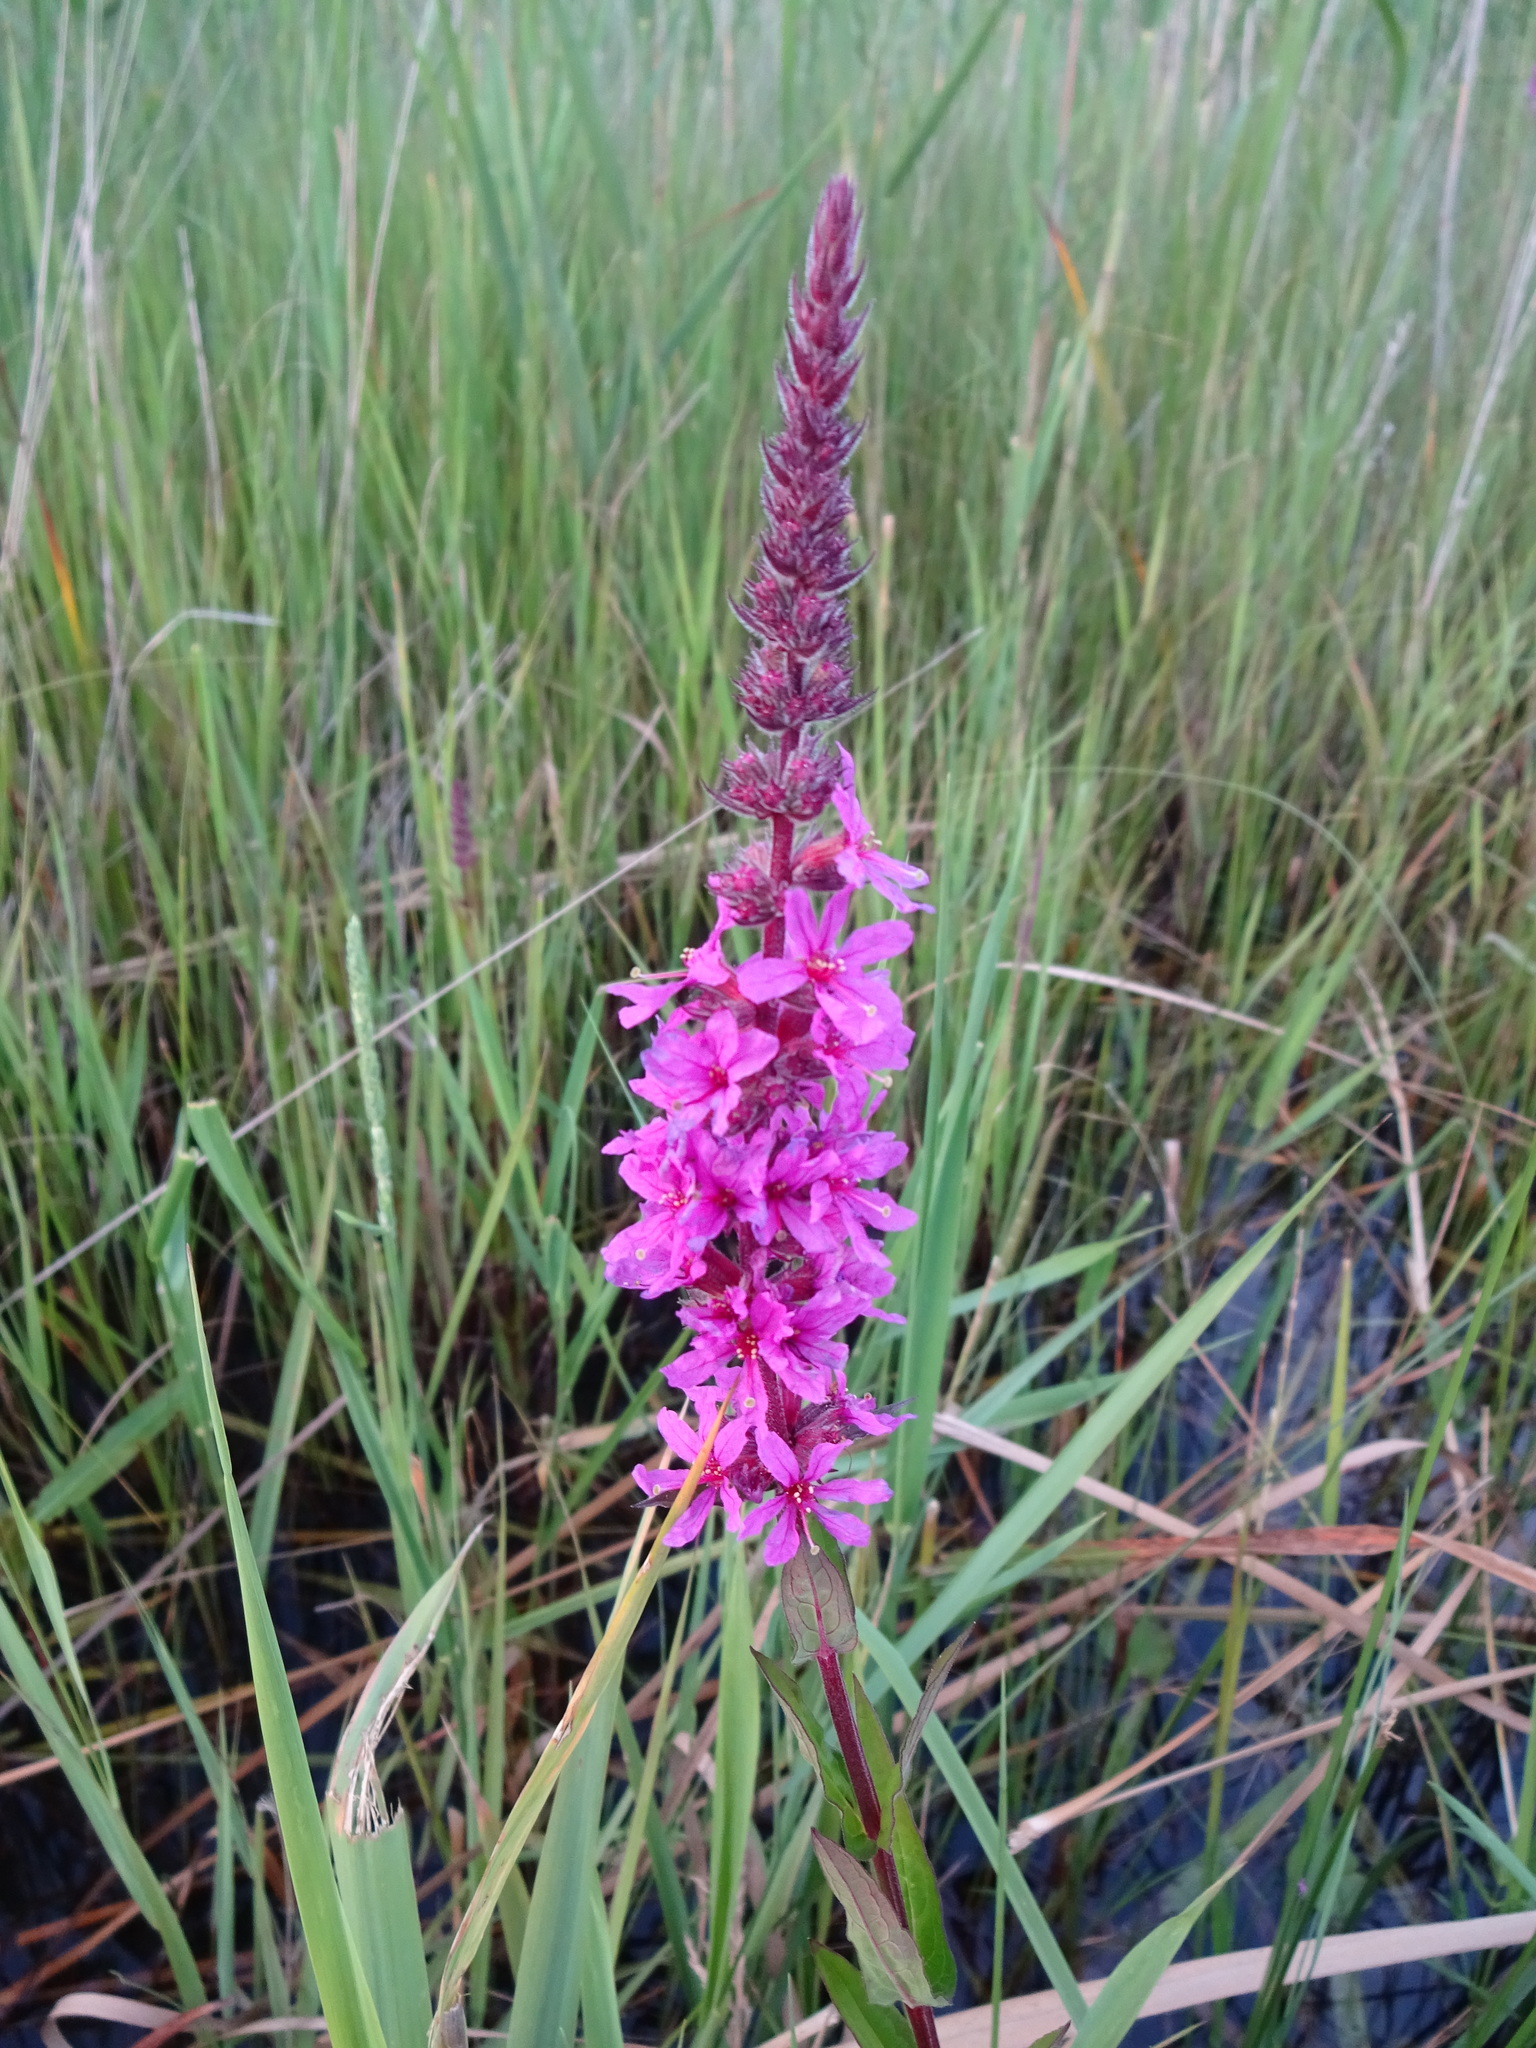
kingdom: Plantae
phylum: Tracheophyta
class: Magnoliopsida
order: Myrtales
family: Lythraceae
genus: Lythrum
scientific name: Lythrum salicaria
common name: Purple loosestrife
